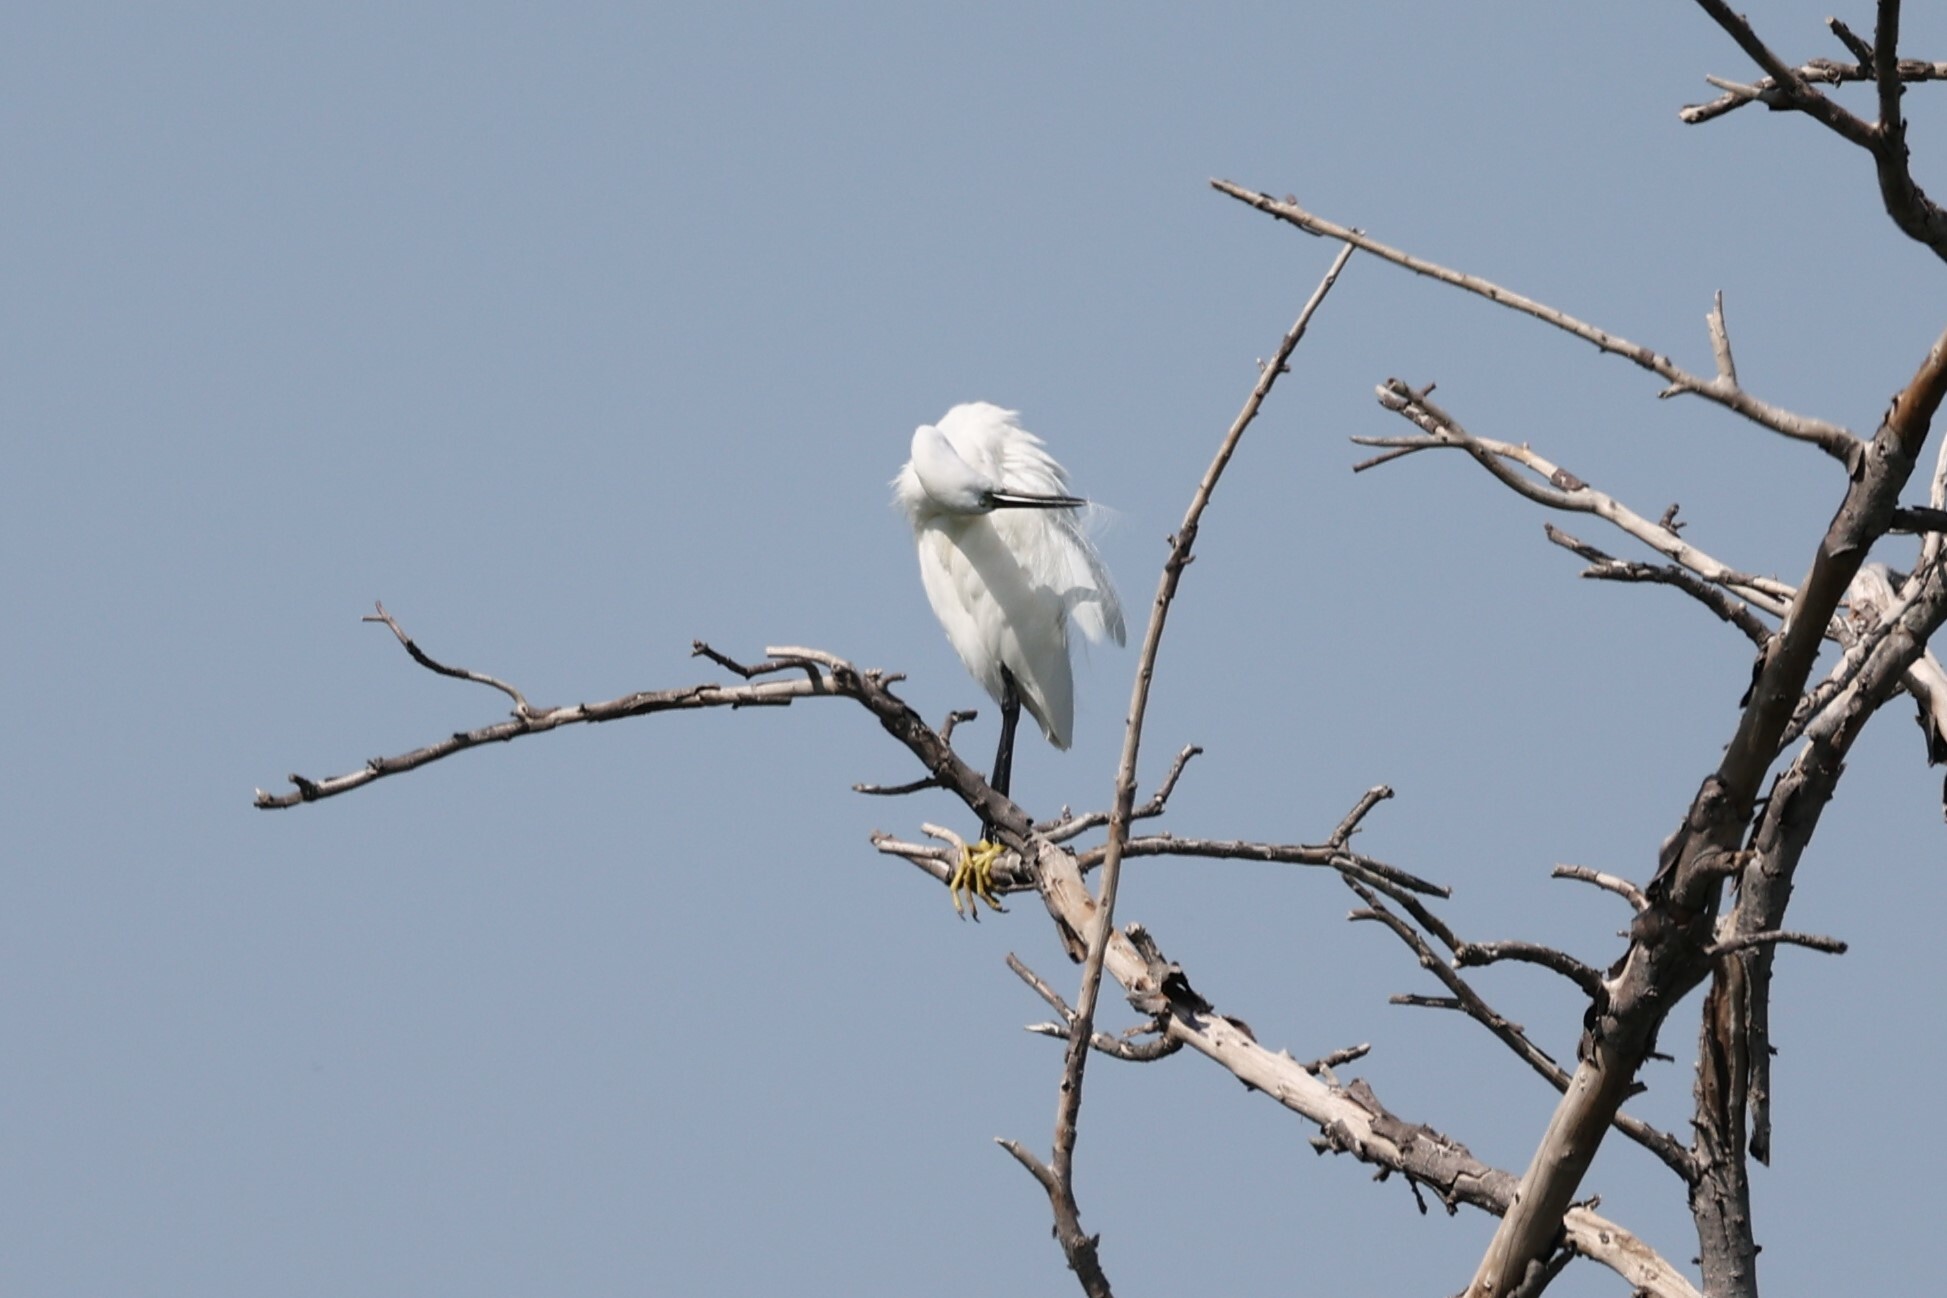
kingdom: Animalia
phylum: Chordata
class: Aves
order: Pelecaniformes
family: Ardeidae
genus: Egretta
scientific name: Egretta garzetta
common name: Little egret
